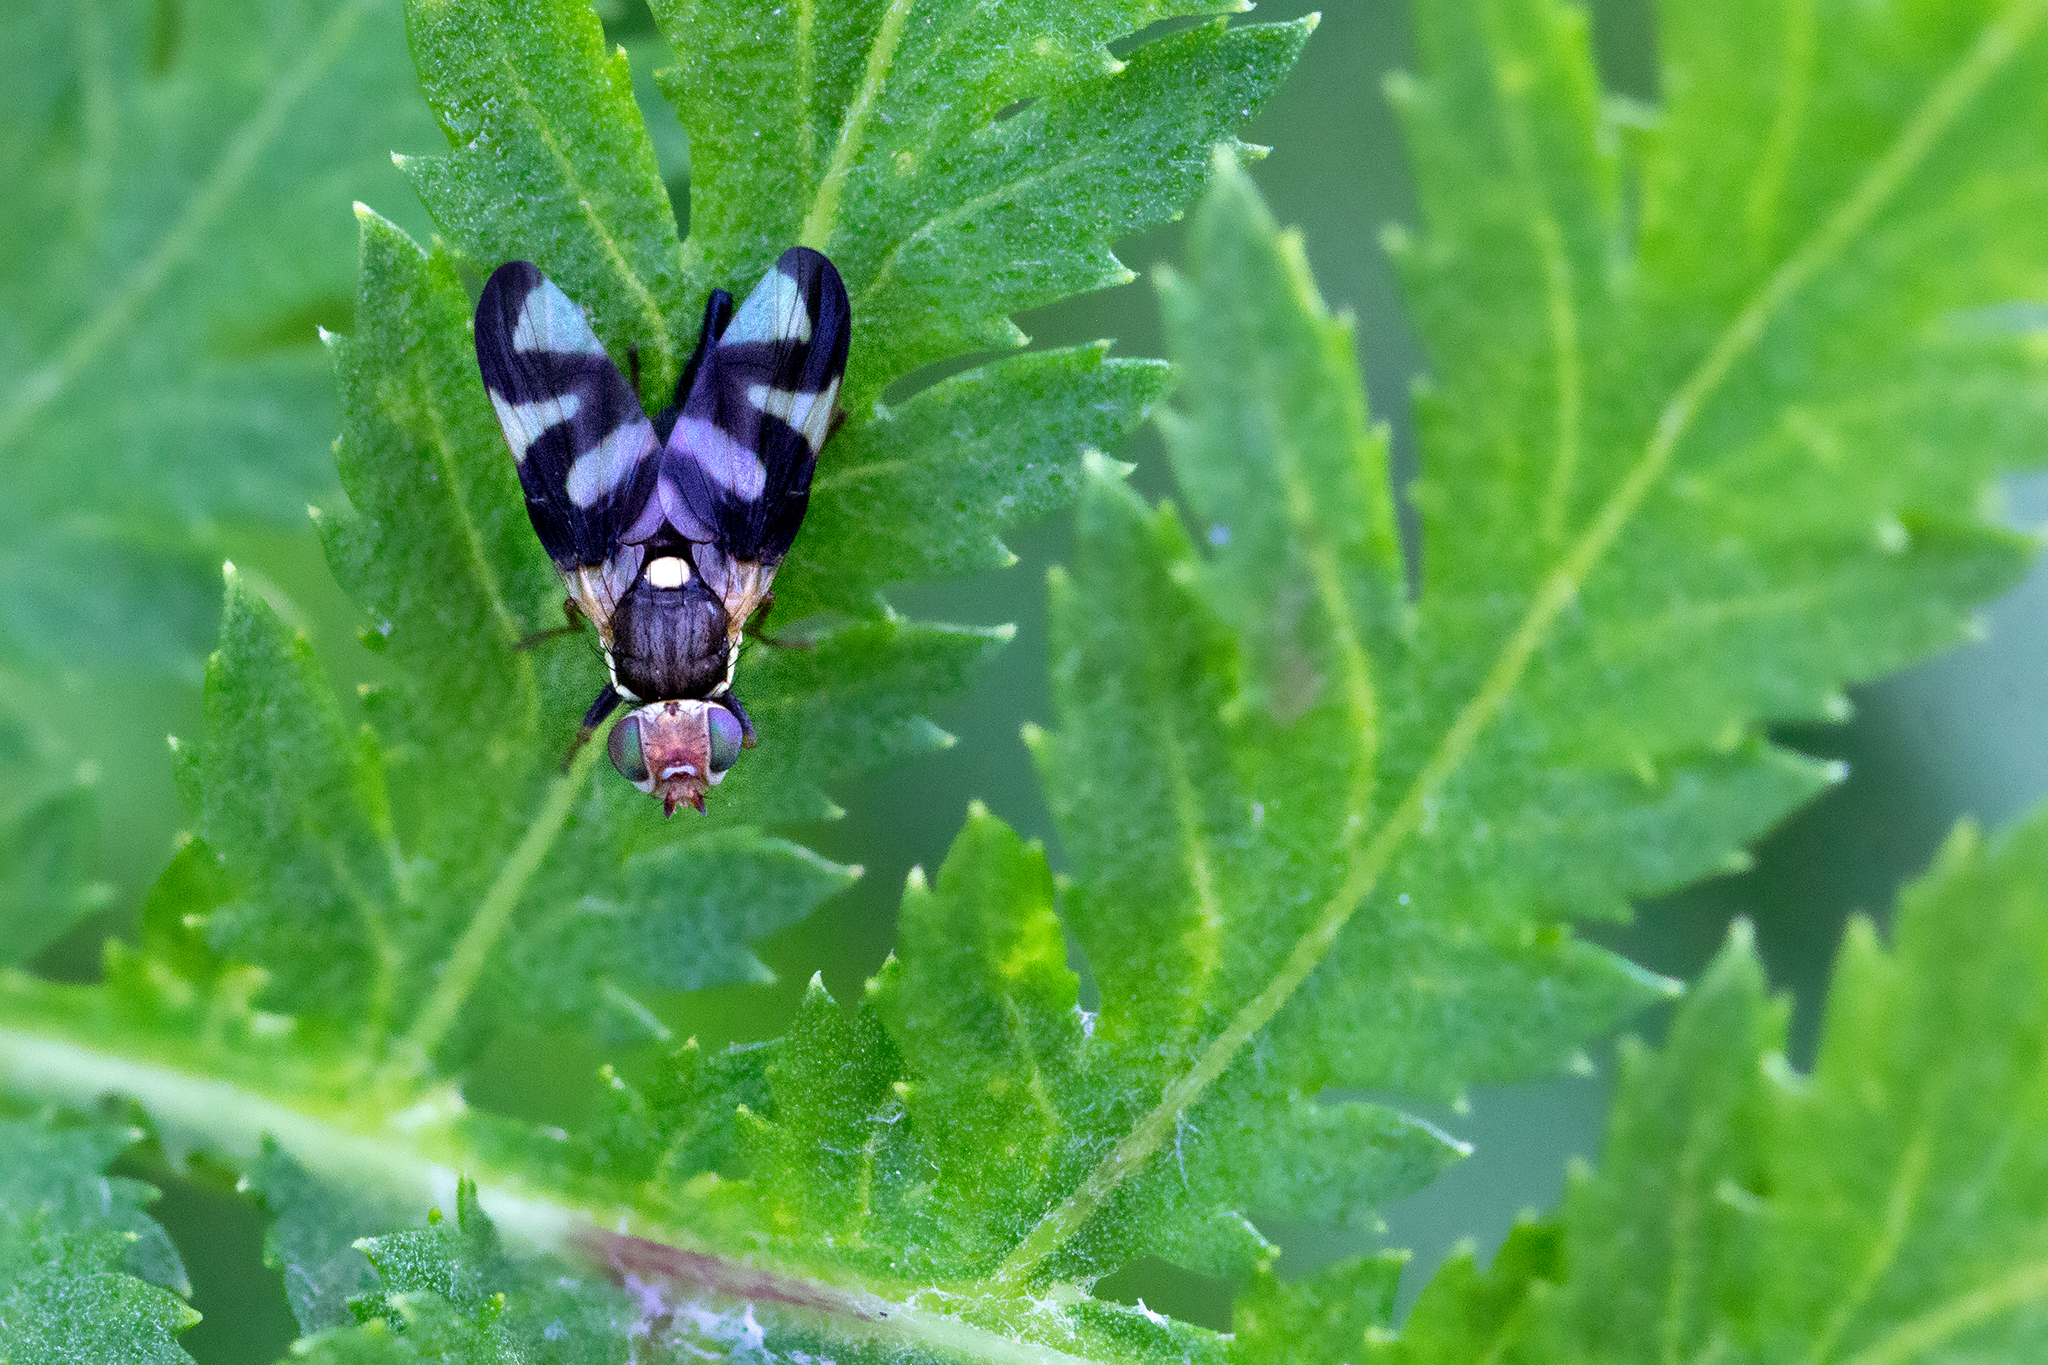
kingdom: Animalia
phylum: Arthropoda
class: Insecta
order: Diptera
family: Tephritidae
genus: Urophora
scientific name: Urophora cardui
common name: Fruit fly
